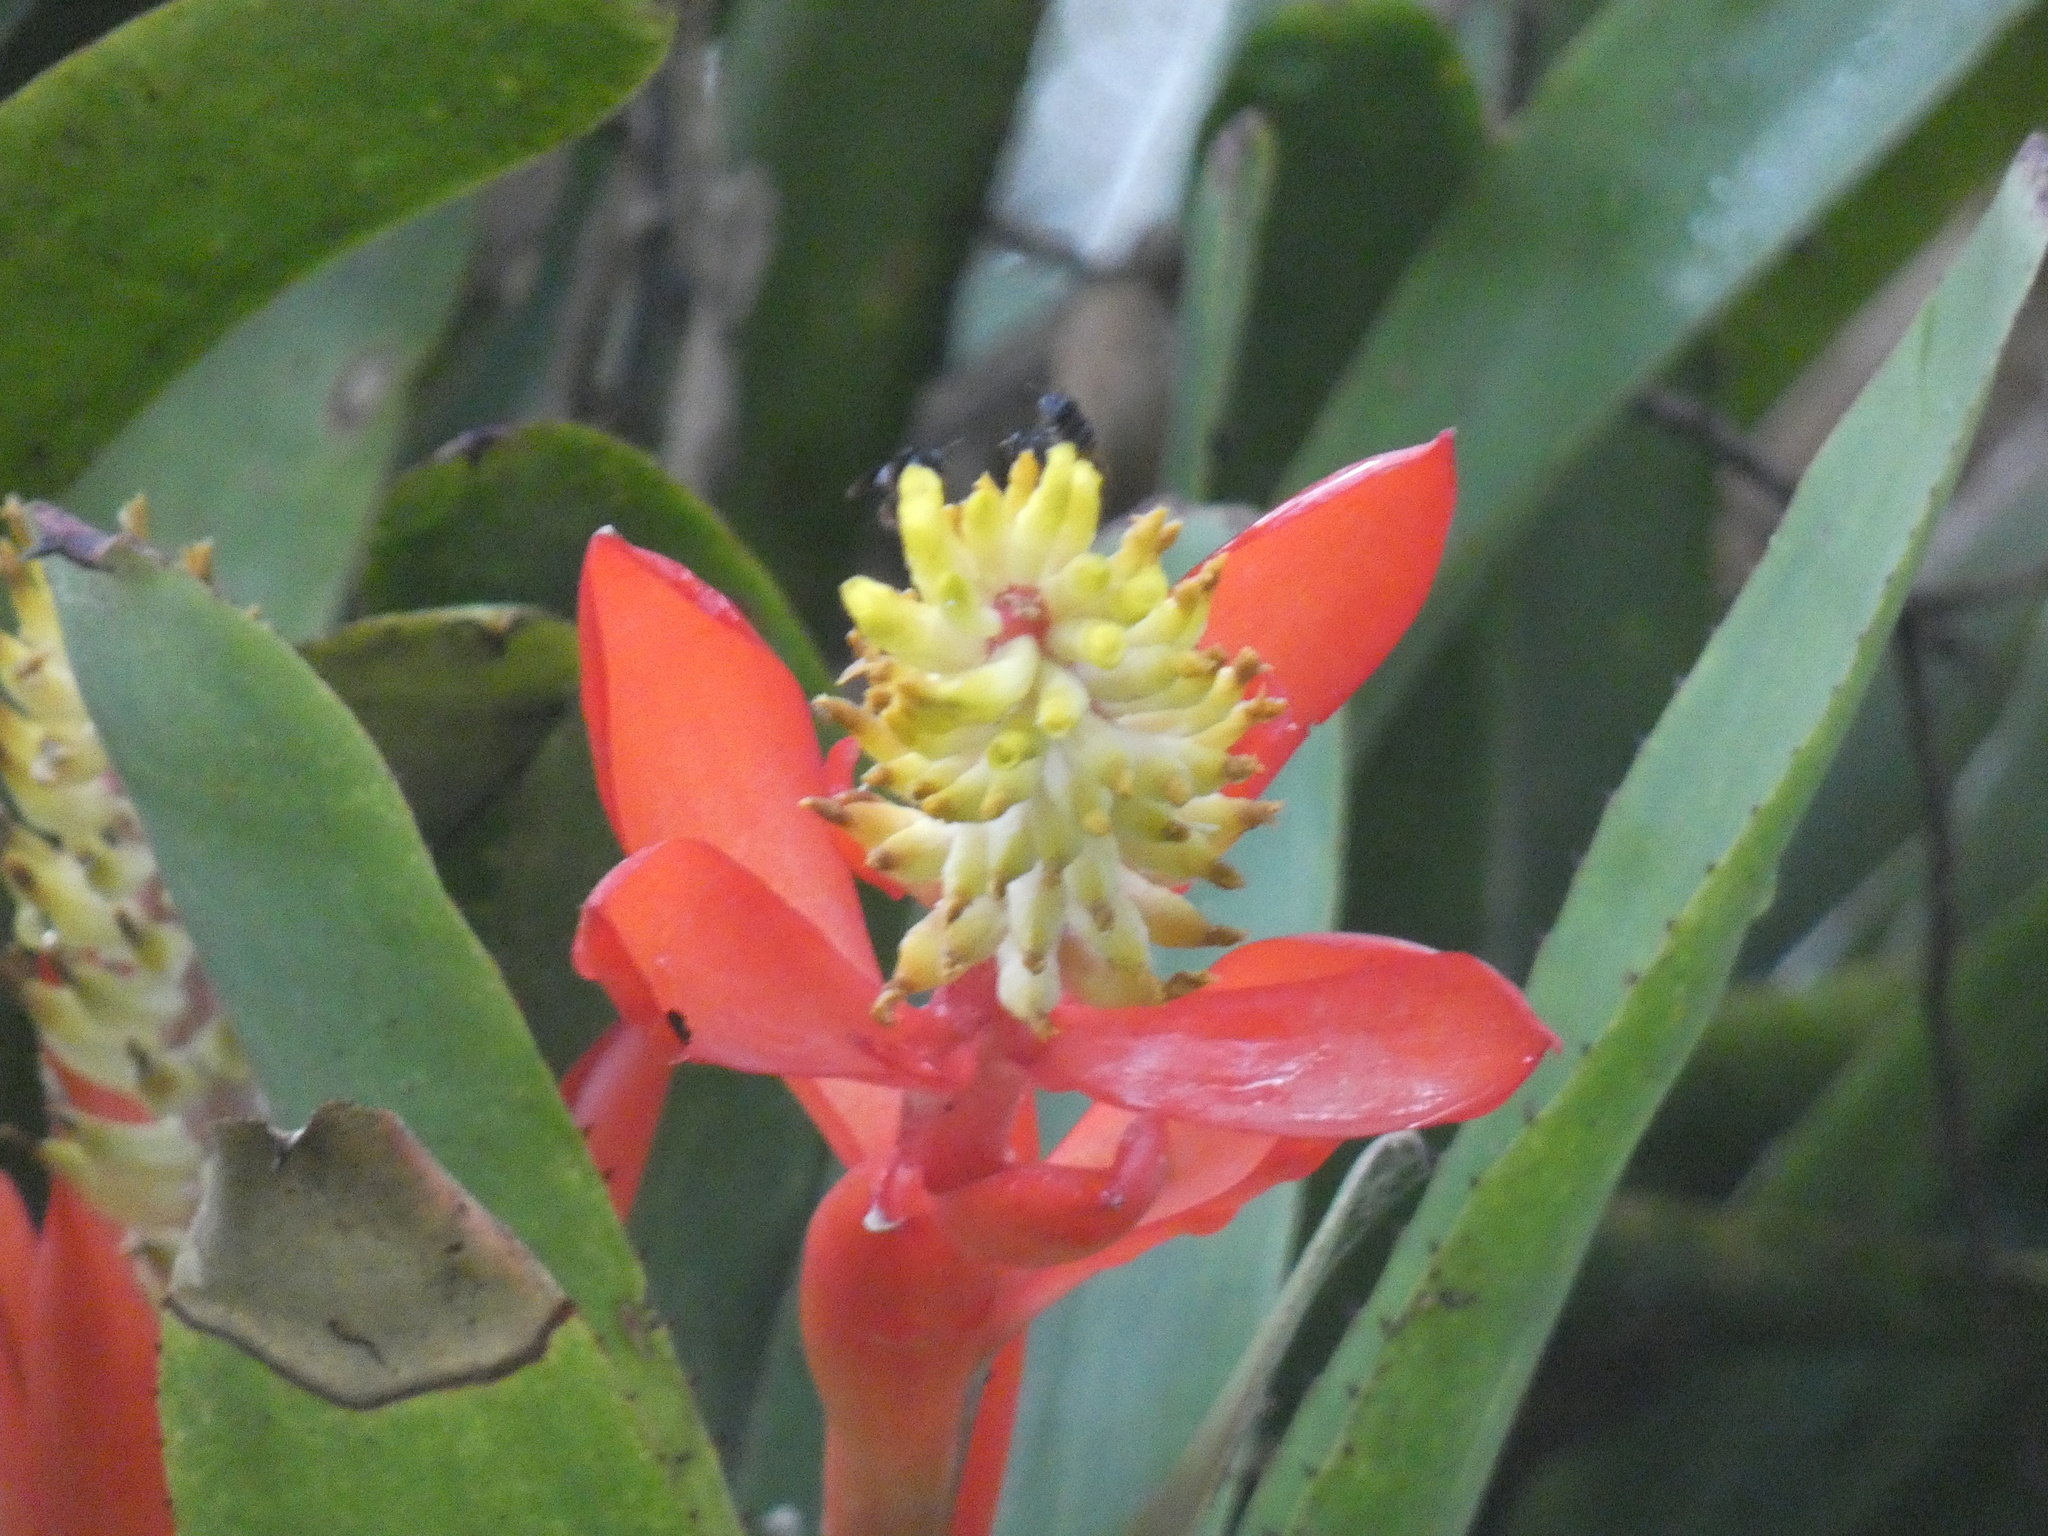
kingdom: Plantae
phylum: Tracheophyta
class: Liliopsida
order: Poales
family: Bromeliaceae
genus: Aechmea
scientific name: Aechmea nudicaulis
